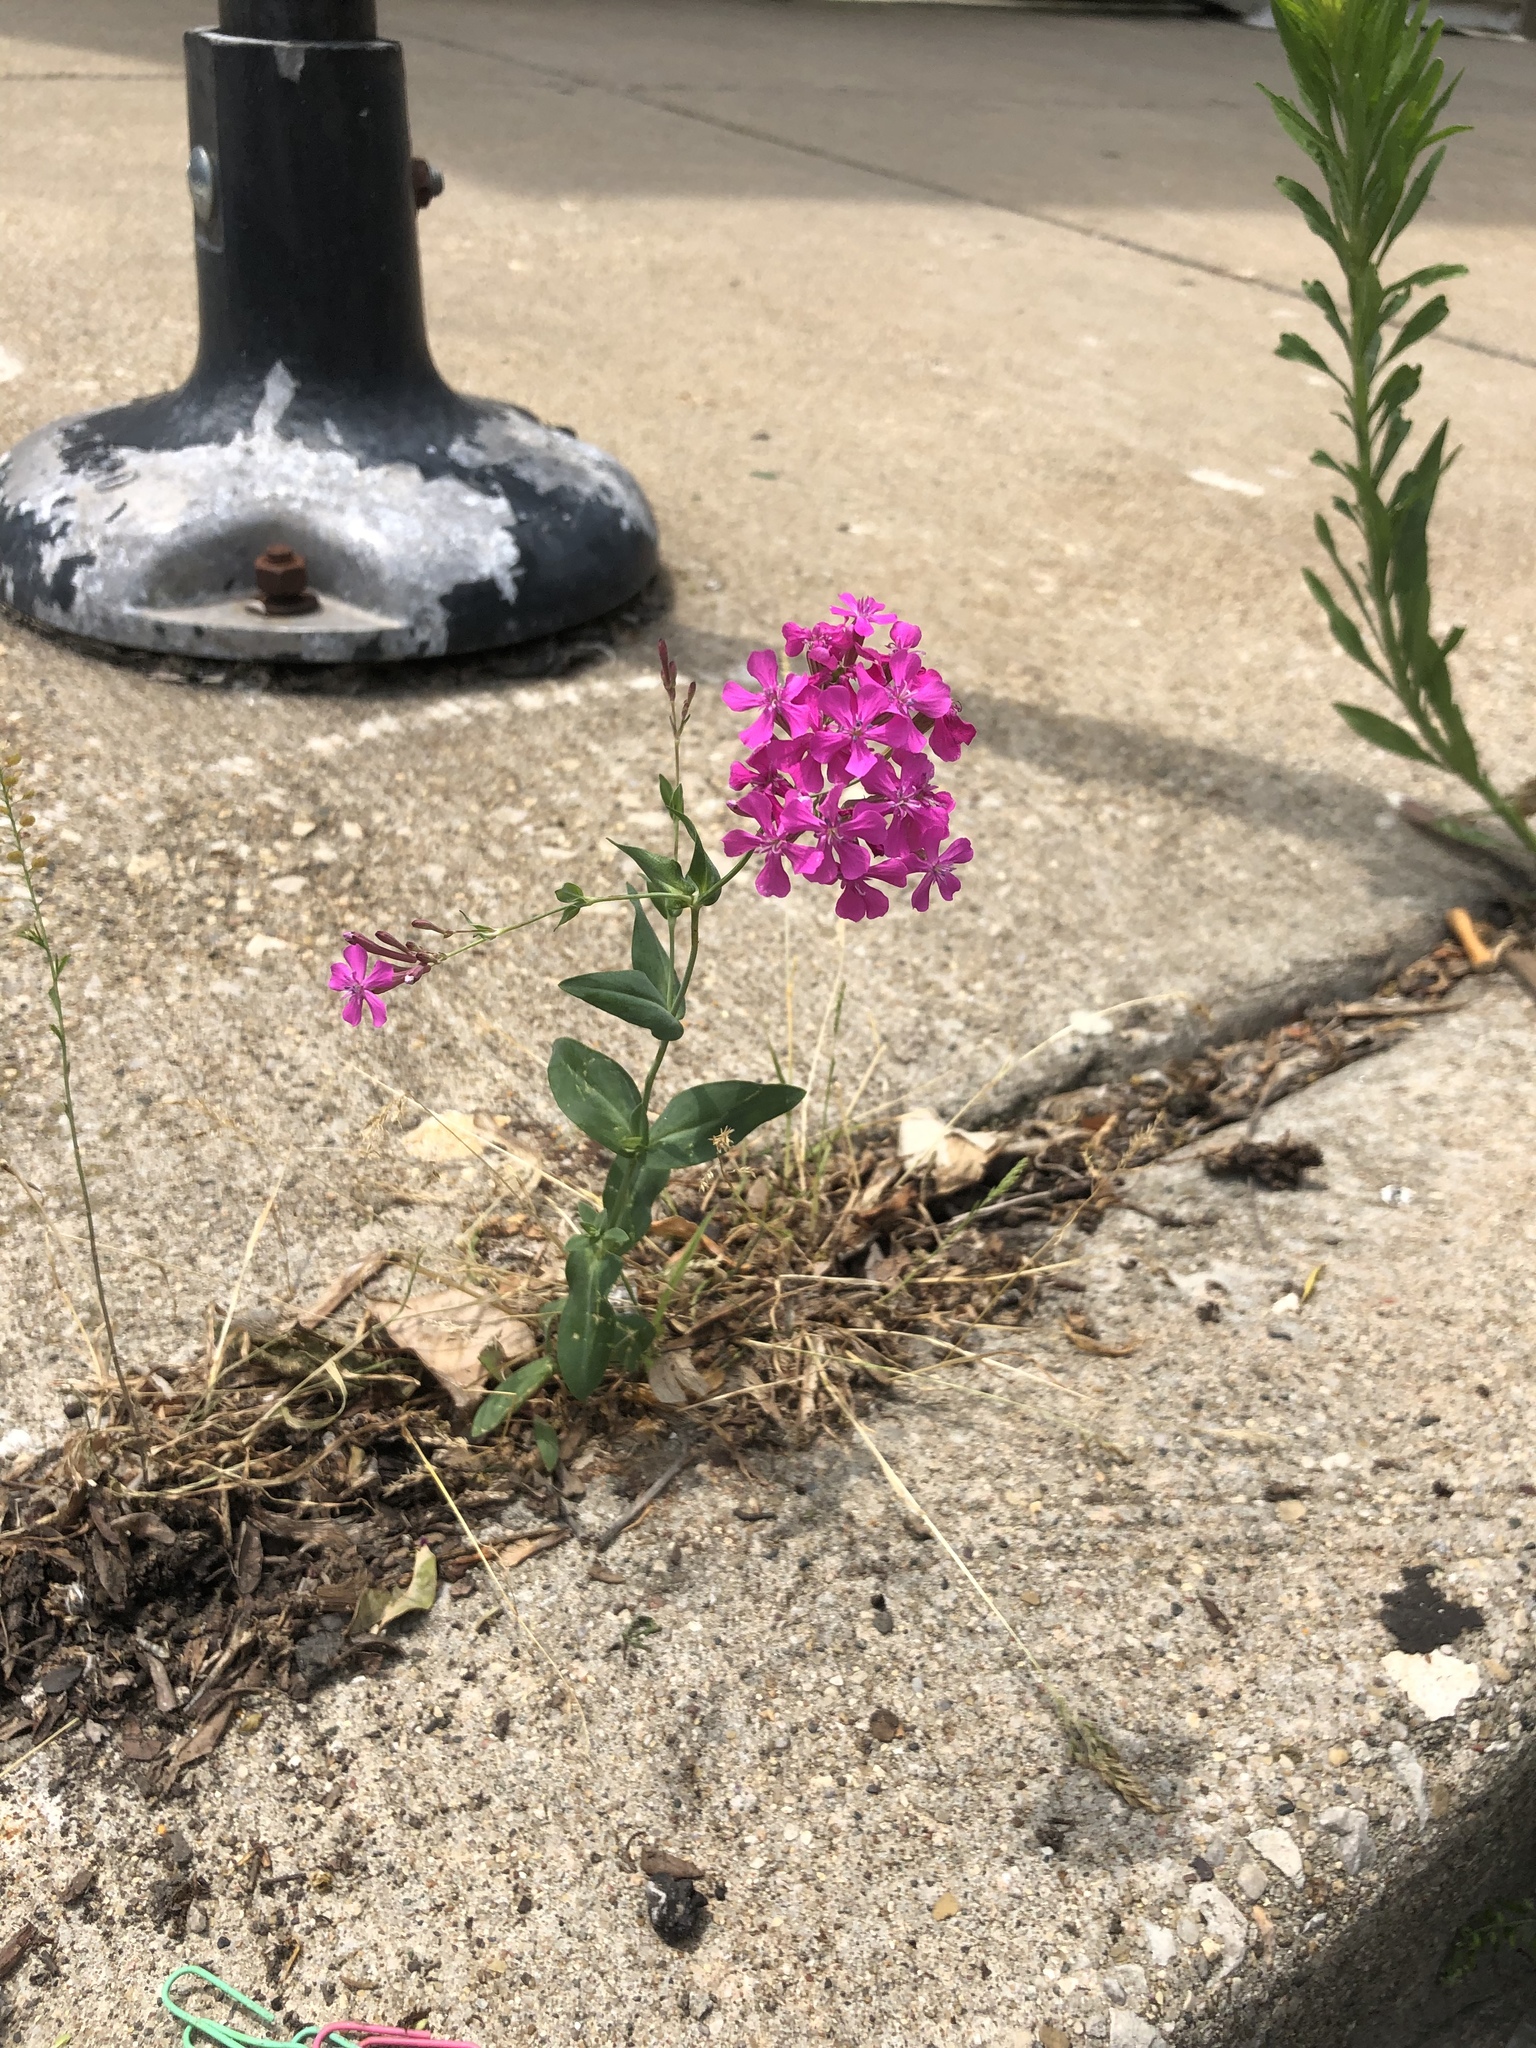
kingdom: Plantae
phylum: Tracheophyta
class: Magnoliopsida
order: Caryophyllales
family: Caryophyllaceae
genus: Atocion
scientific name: Atocion armeria
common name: Sweet william catchfly
